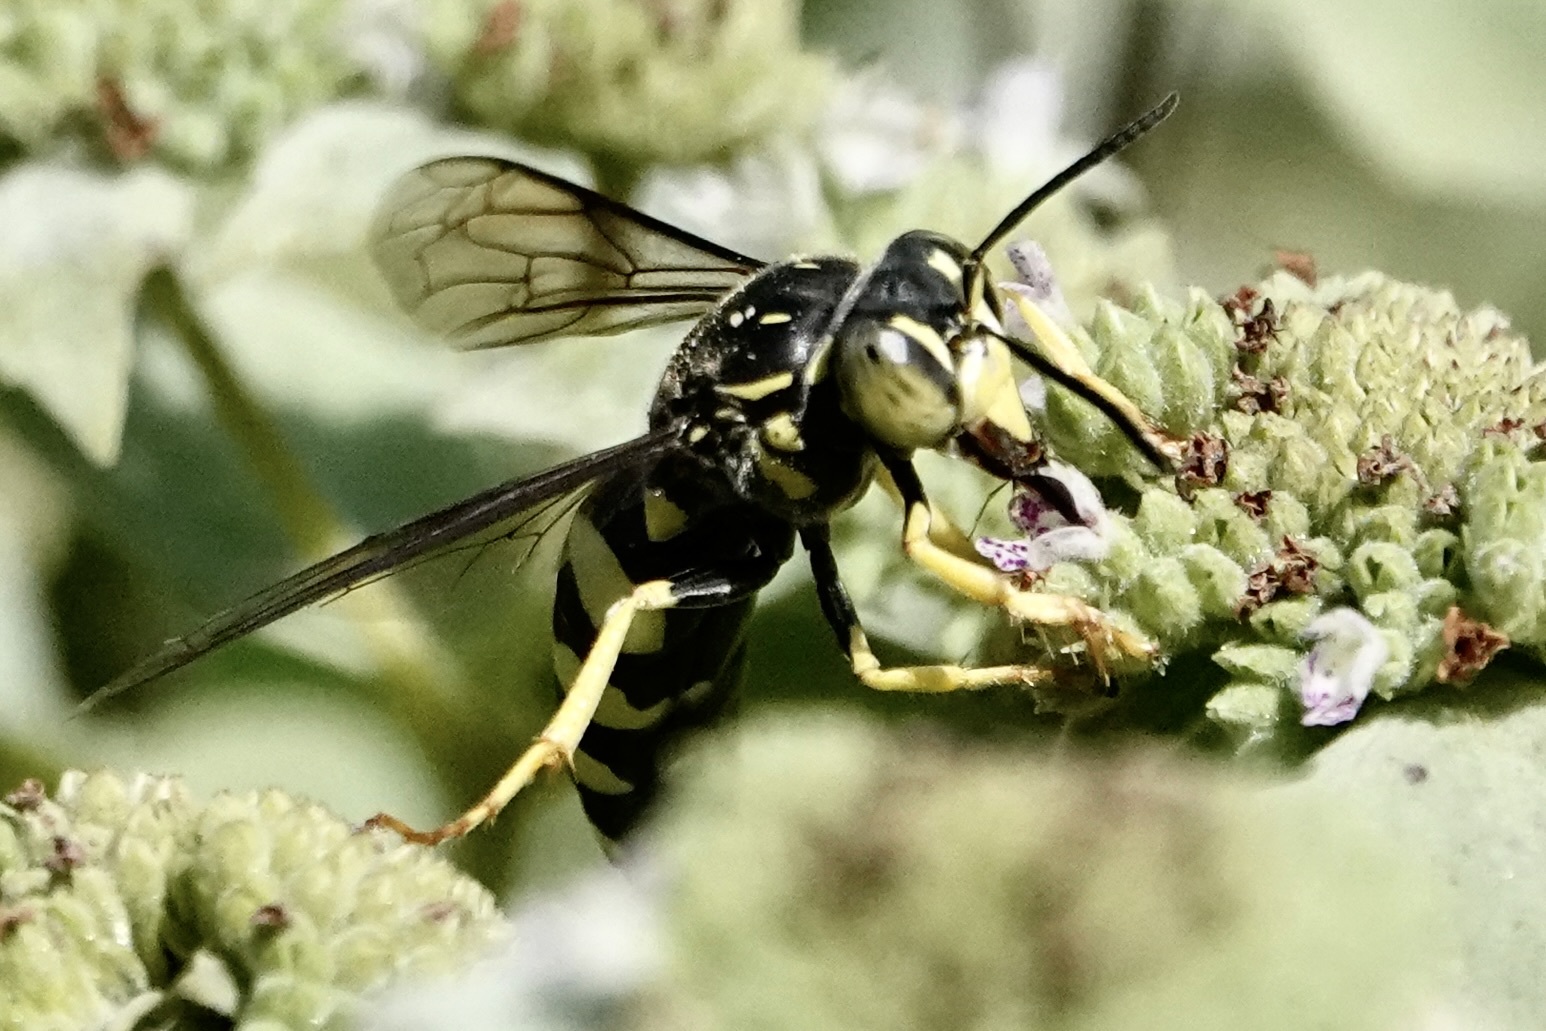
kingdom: Animalia
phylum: Arthropoda
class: Insecta
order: Hymenoptera
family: Crabronidae
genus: Bicyrtes
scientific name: Bicyrtes quadrifasciatus
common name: Four-banded stink bug hunter wasp
